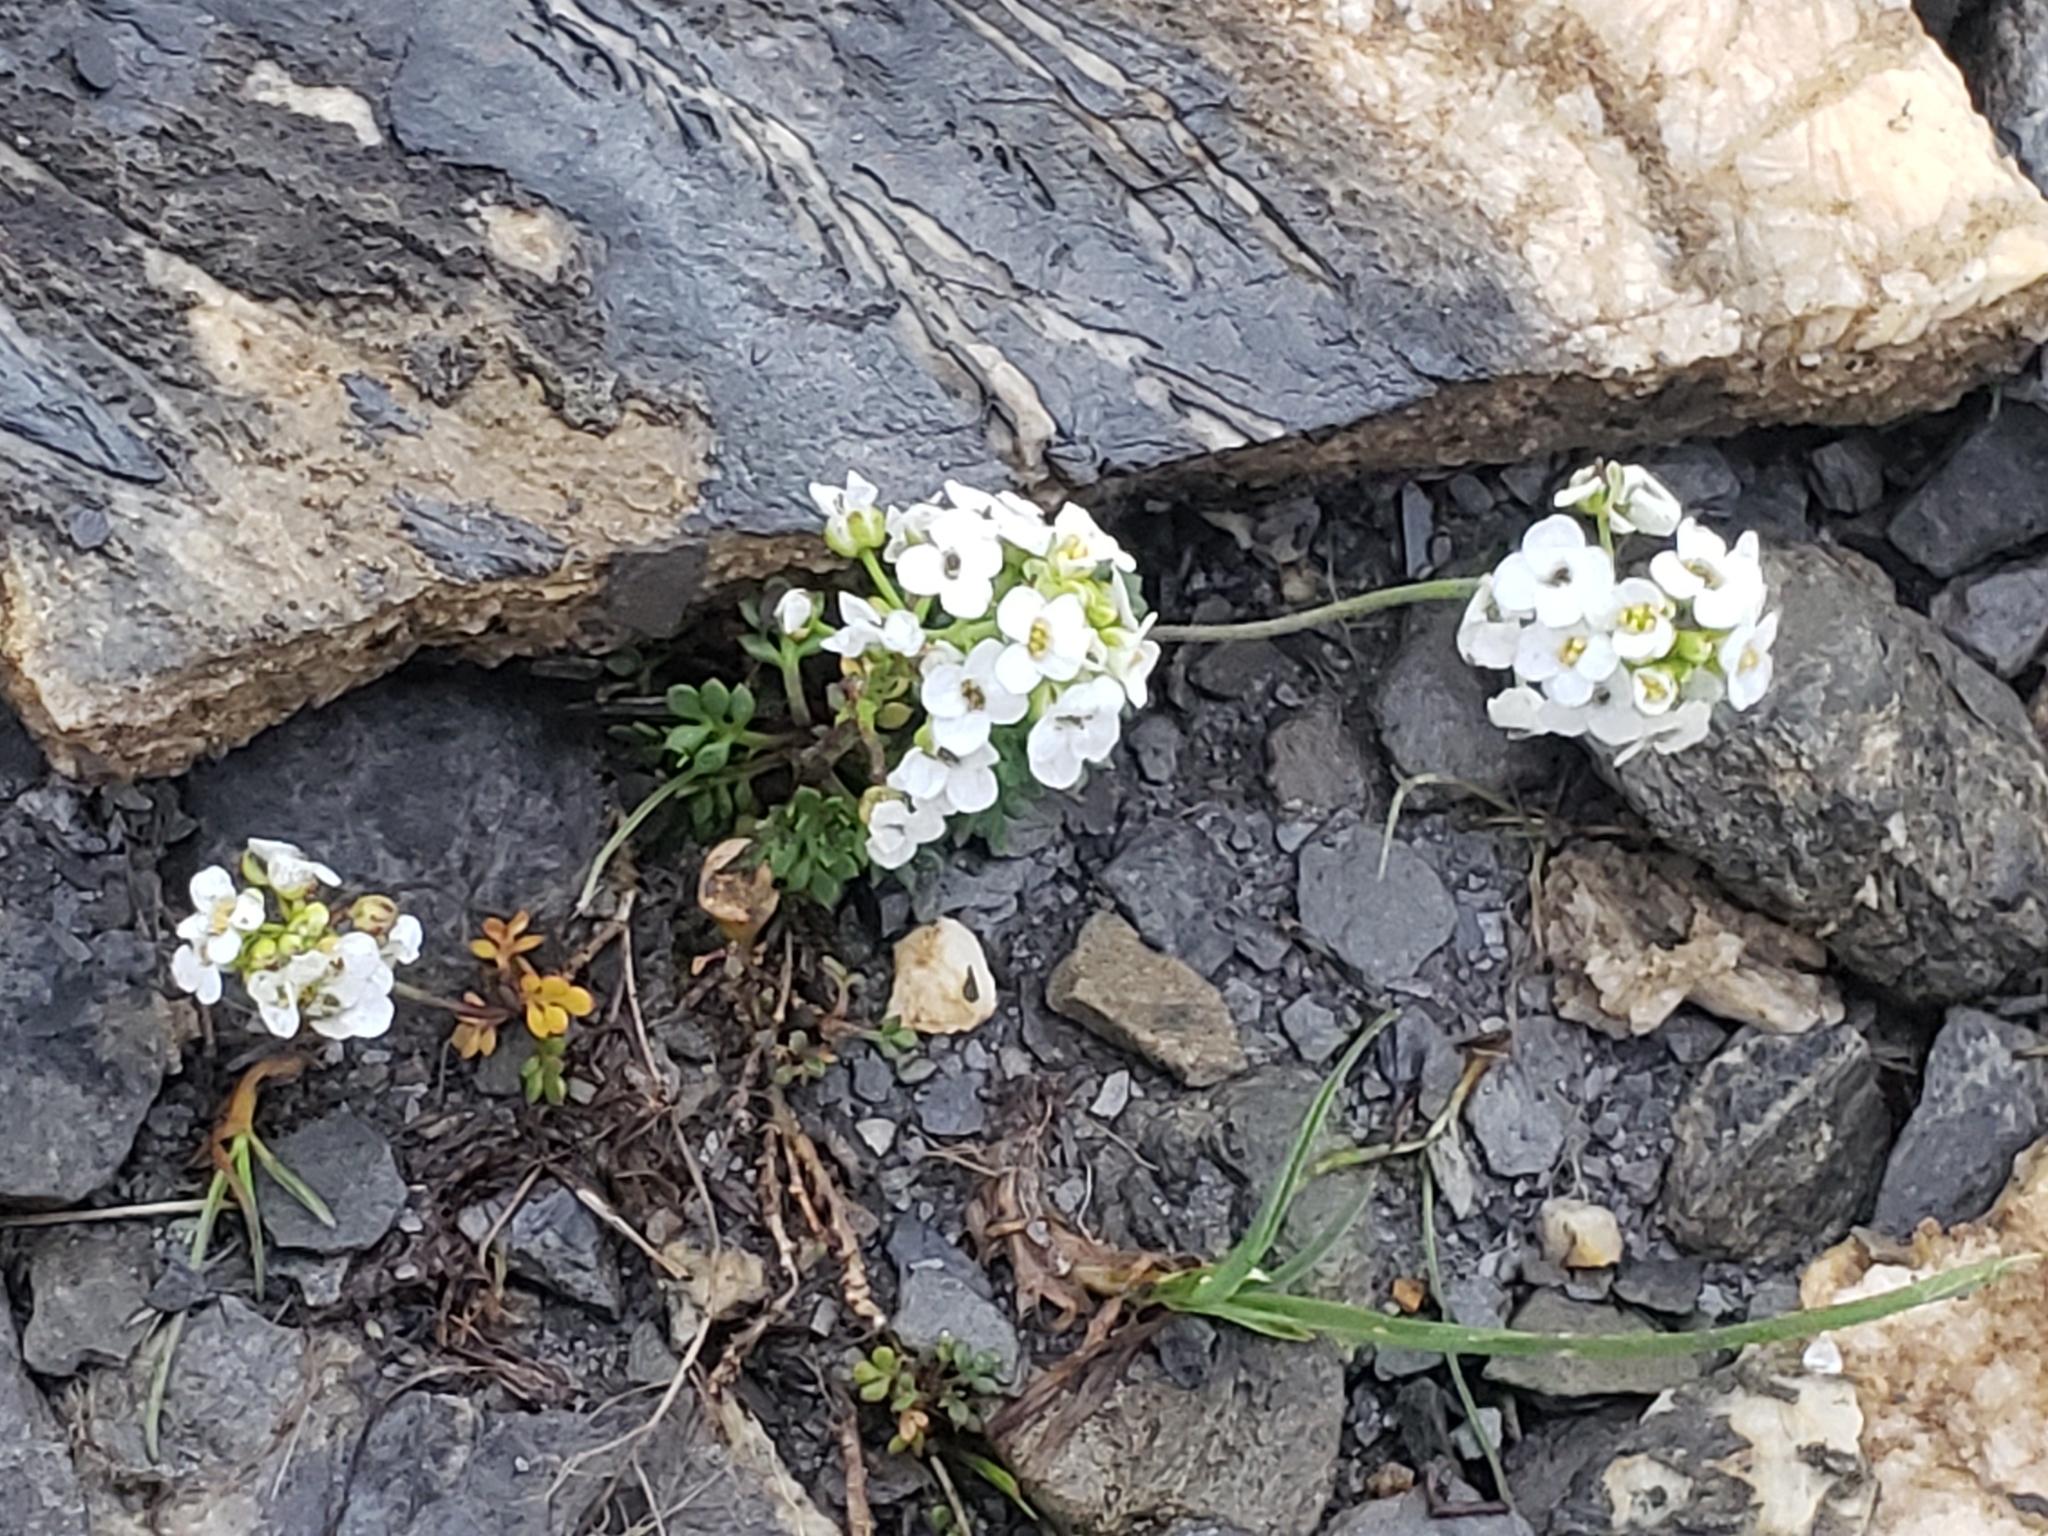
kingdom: Plantae
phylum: Tracheophyta
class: Magnoliopsida
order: Brassicales
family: Brassicaceae
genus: Hornungia
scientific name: Hornungia alpina
